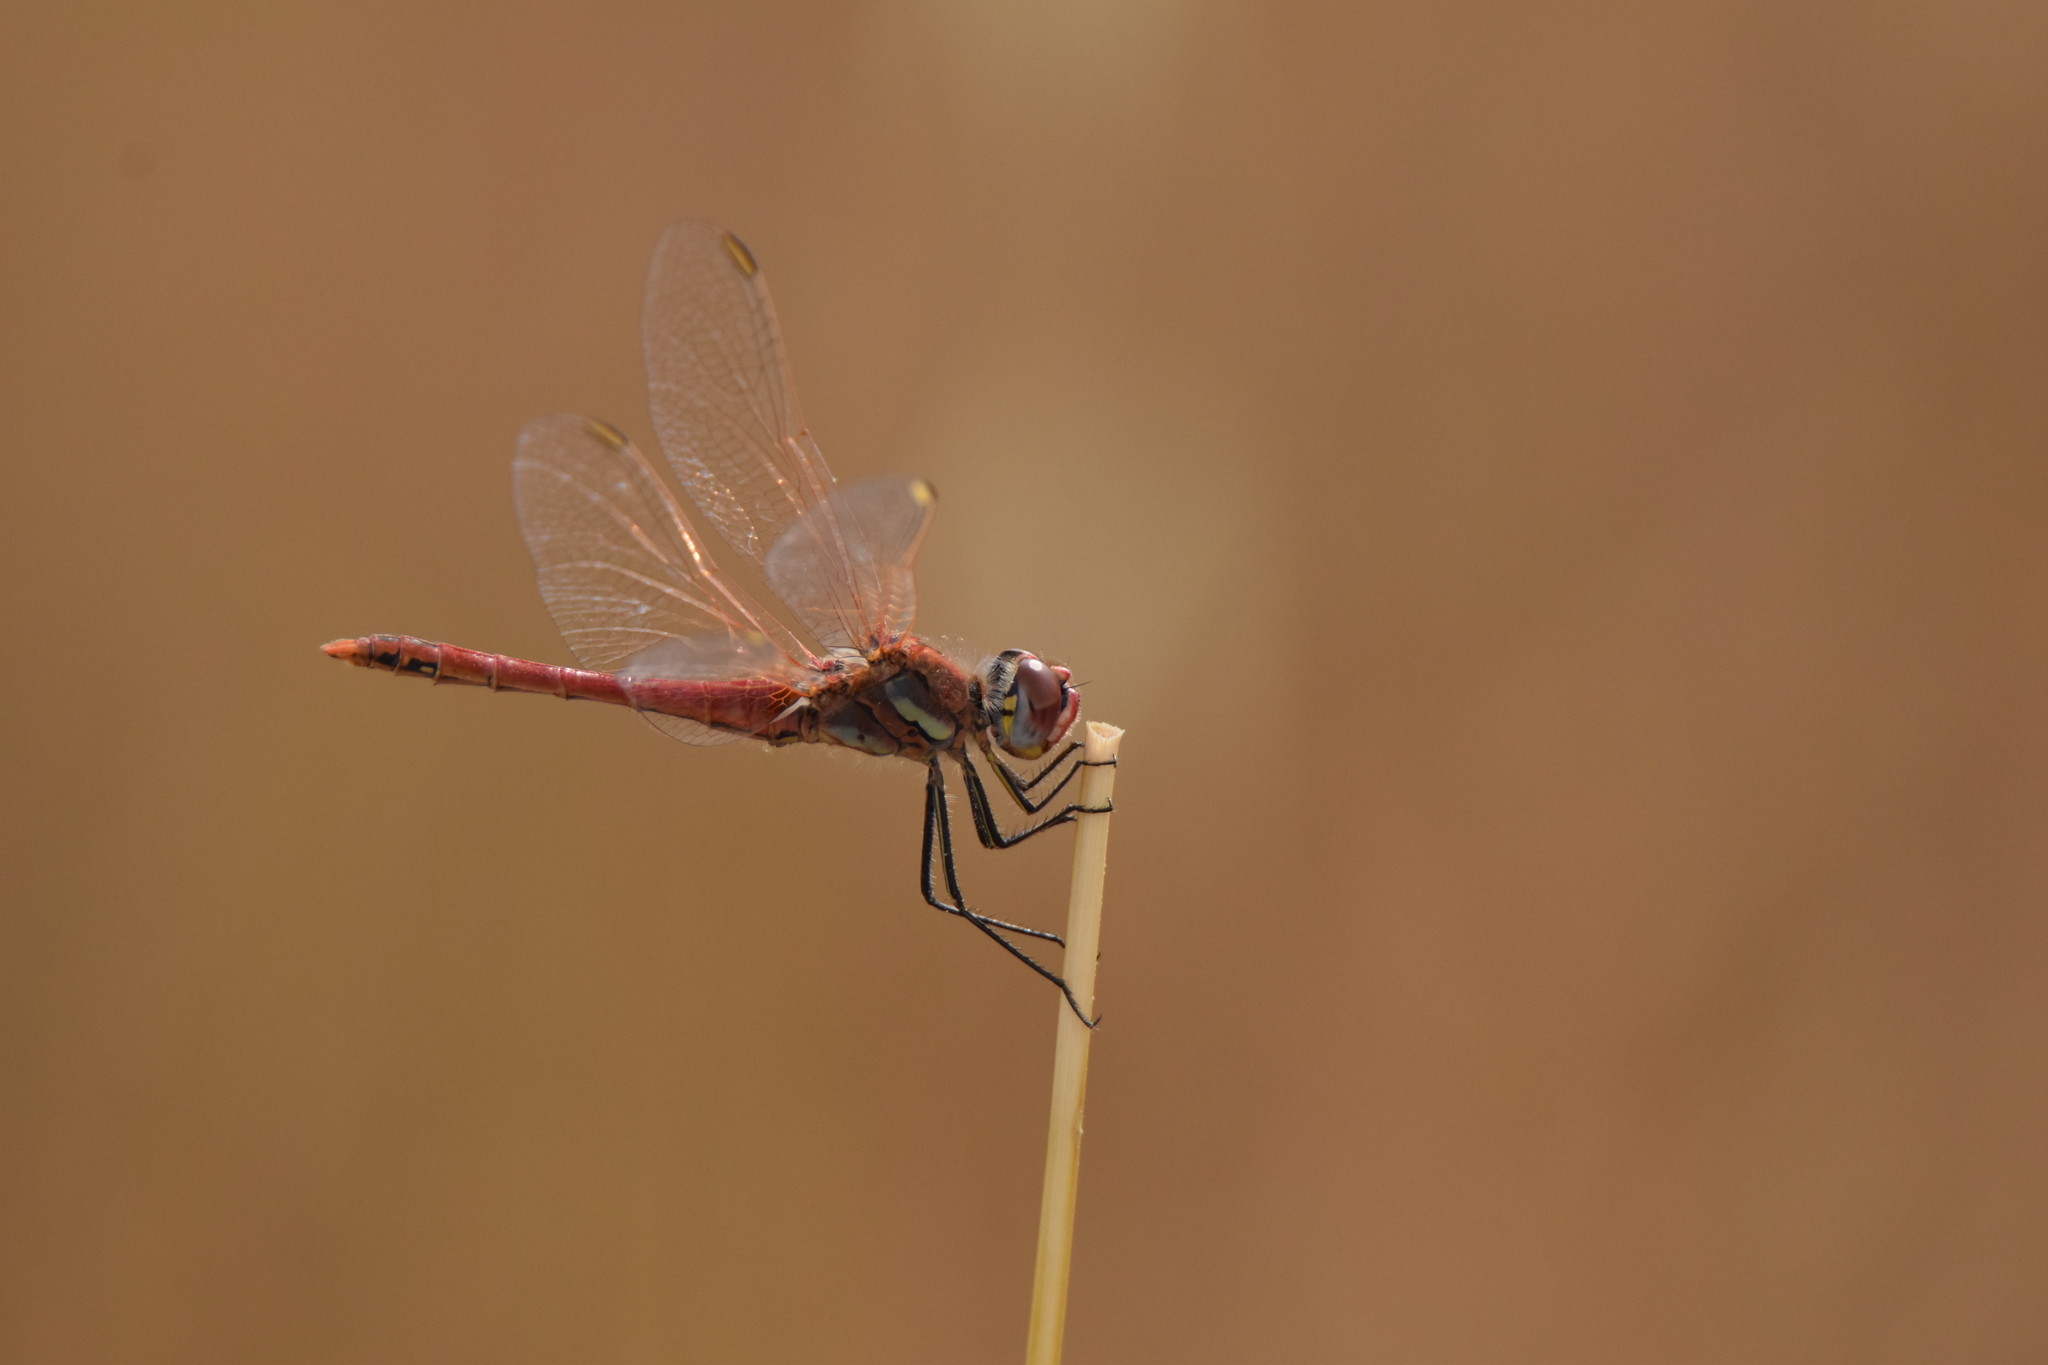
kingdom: Animalia
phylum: Arthropoda
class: Insecta
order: Odonata
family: Libellulidae
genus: Sympetrum
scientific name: Sympetrum fonscolombii
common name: Red-veined darter
